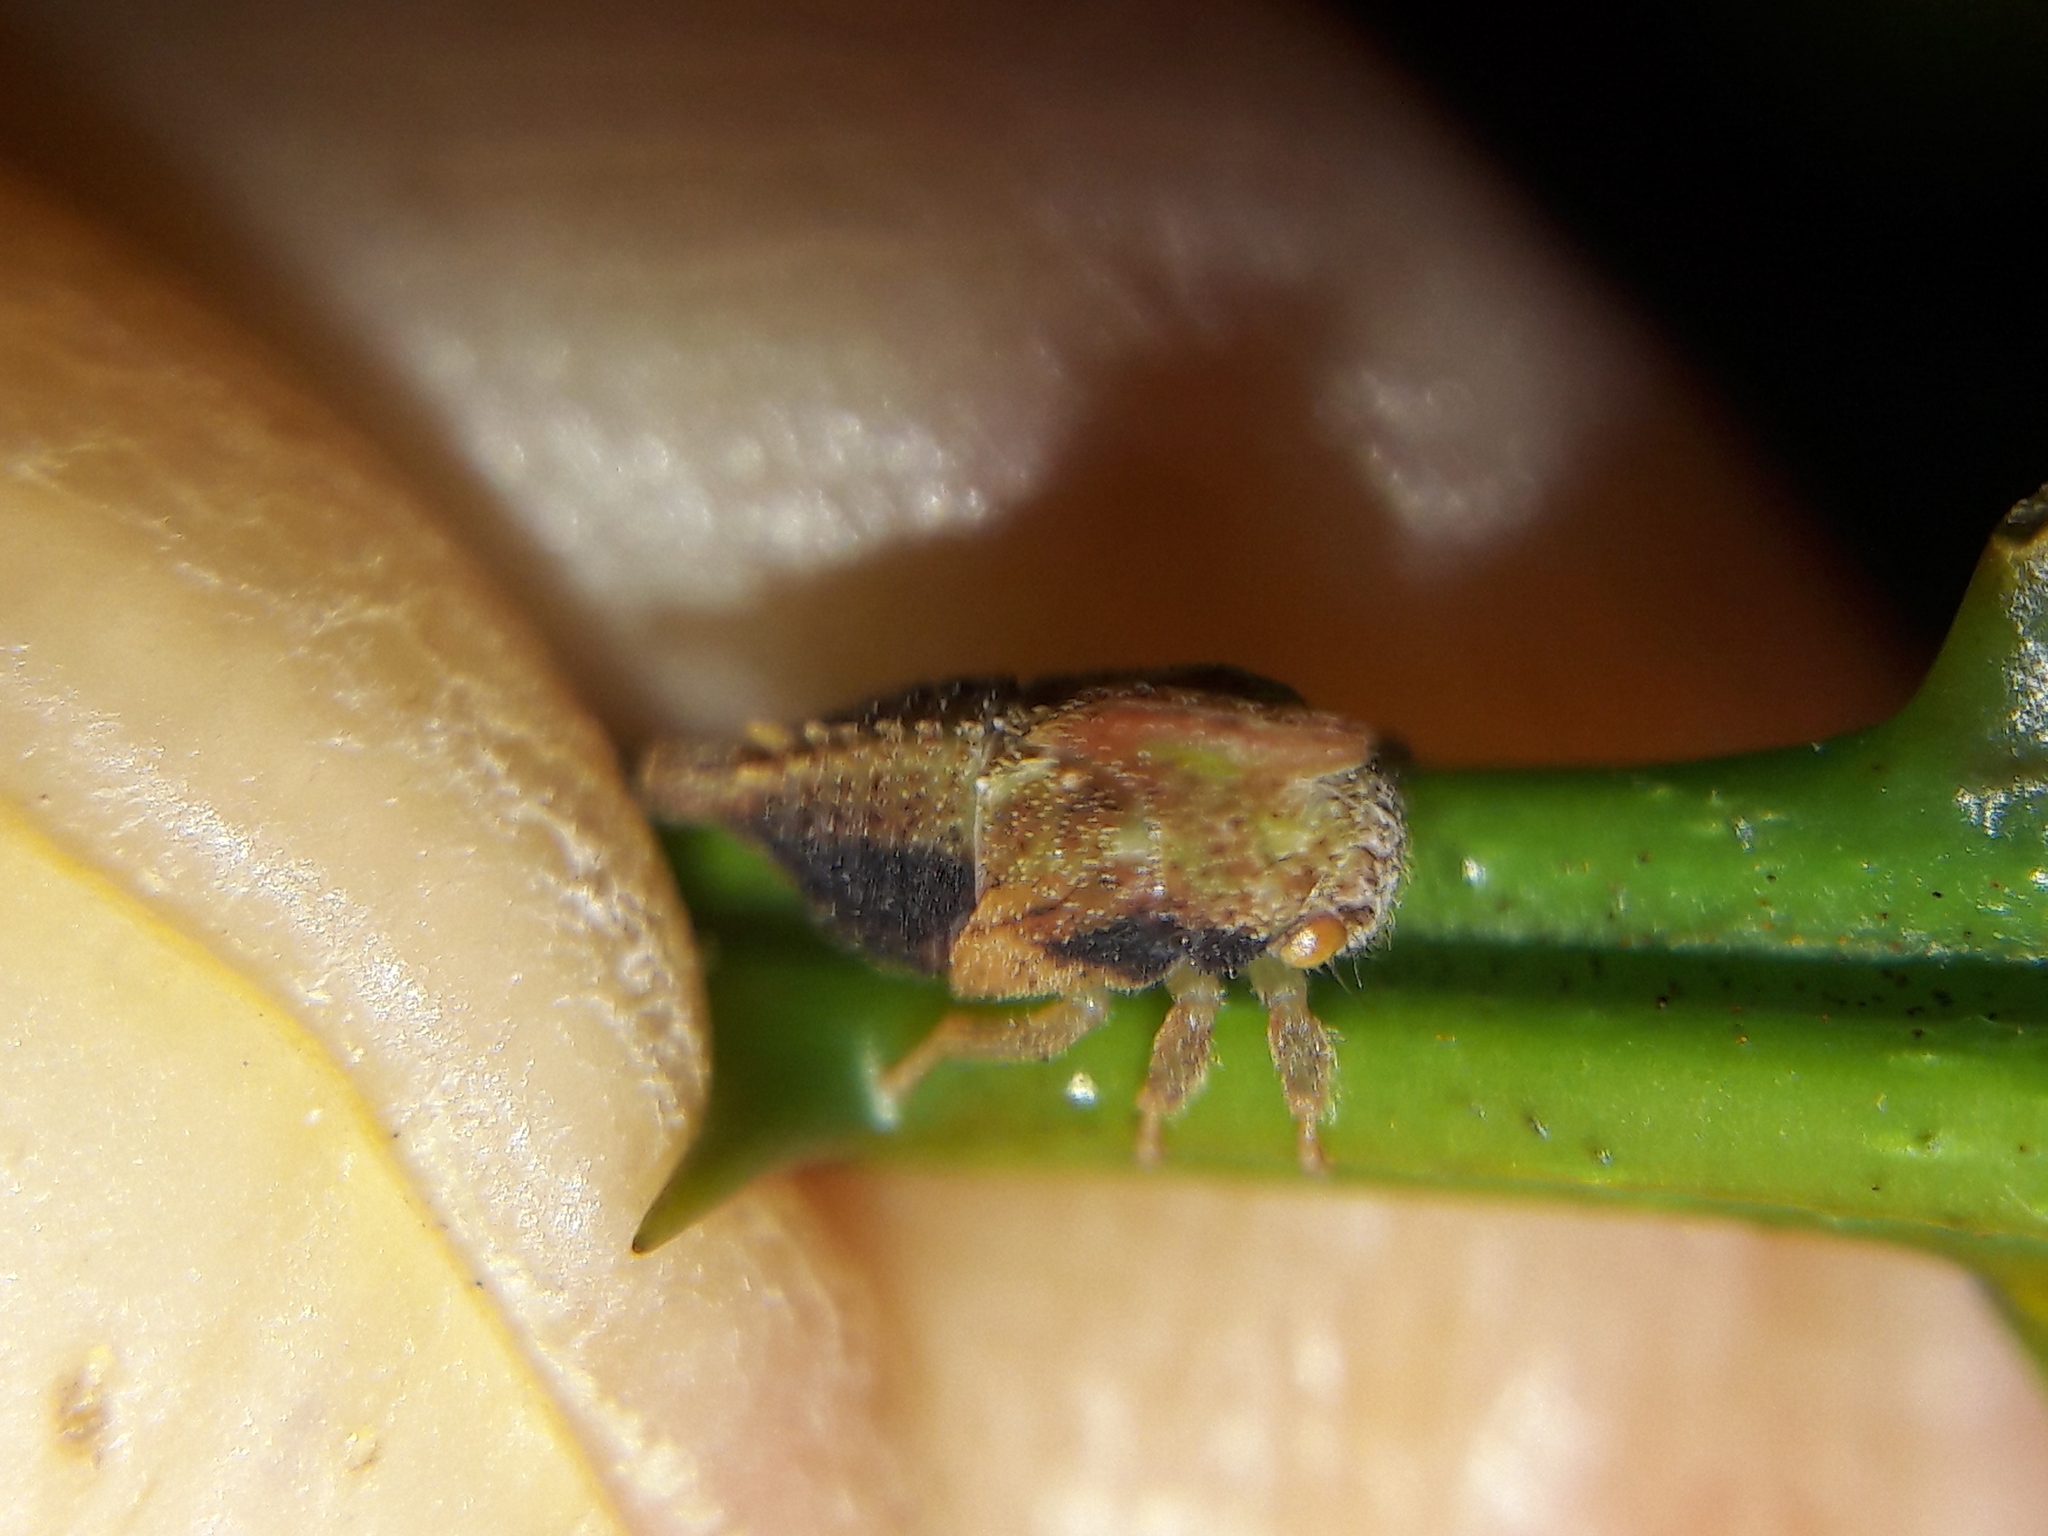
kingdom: Animalia
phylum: Arthropoda
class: Insecta
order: Hemiptera
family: Membracidae
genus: Enchenopa
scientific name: Enchenopa concolor
